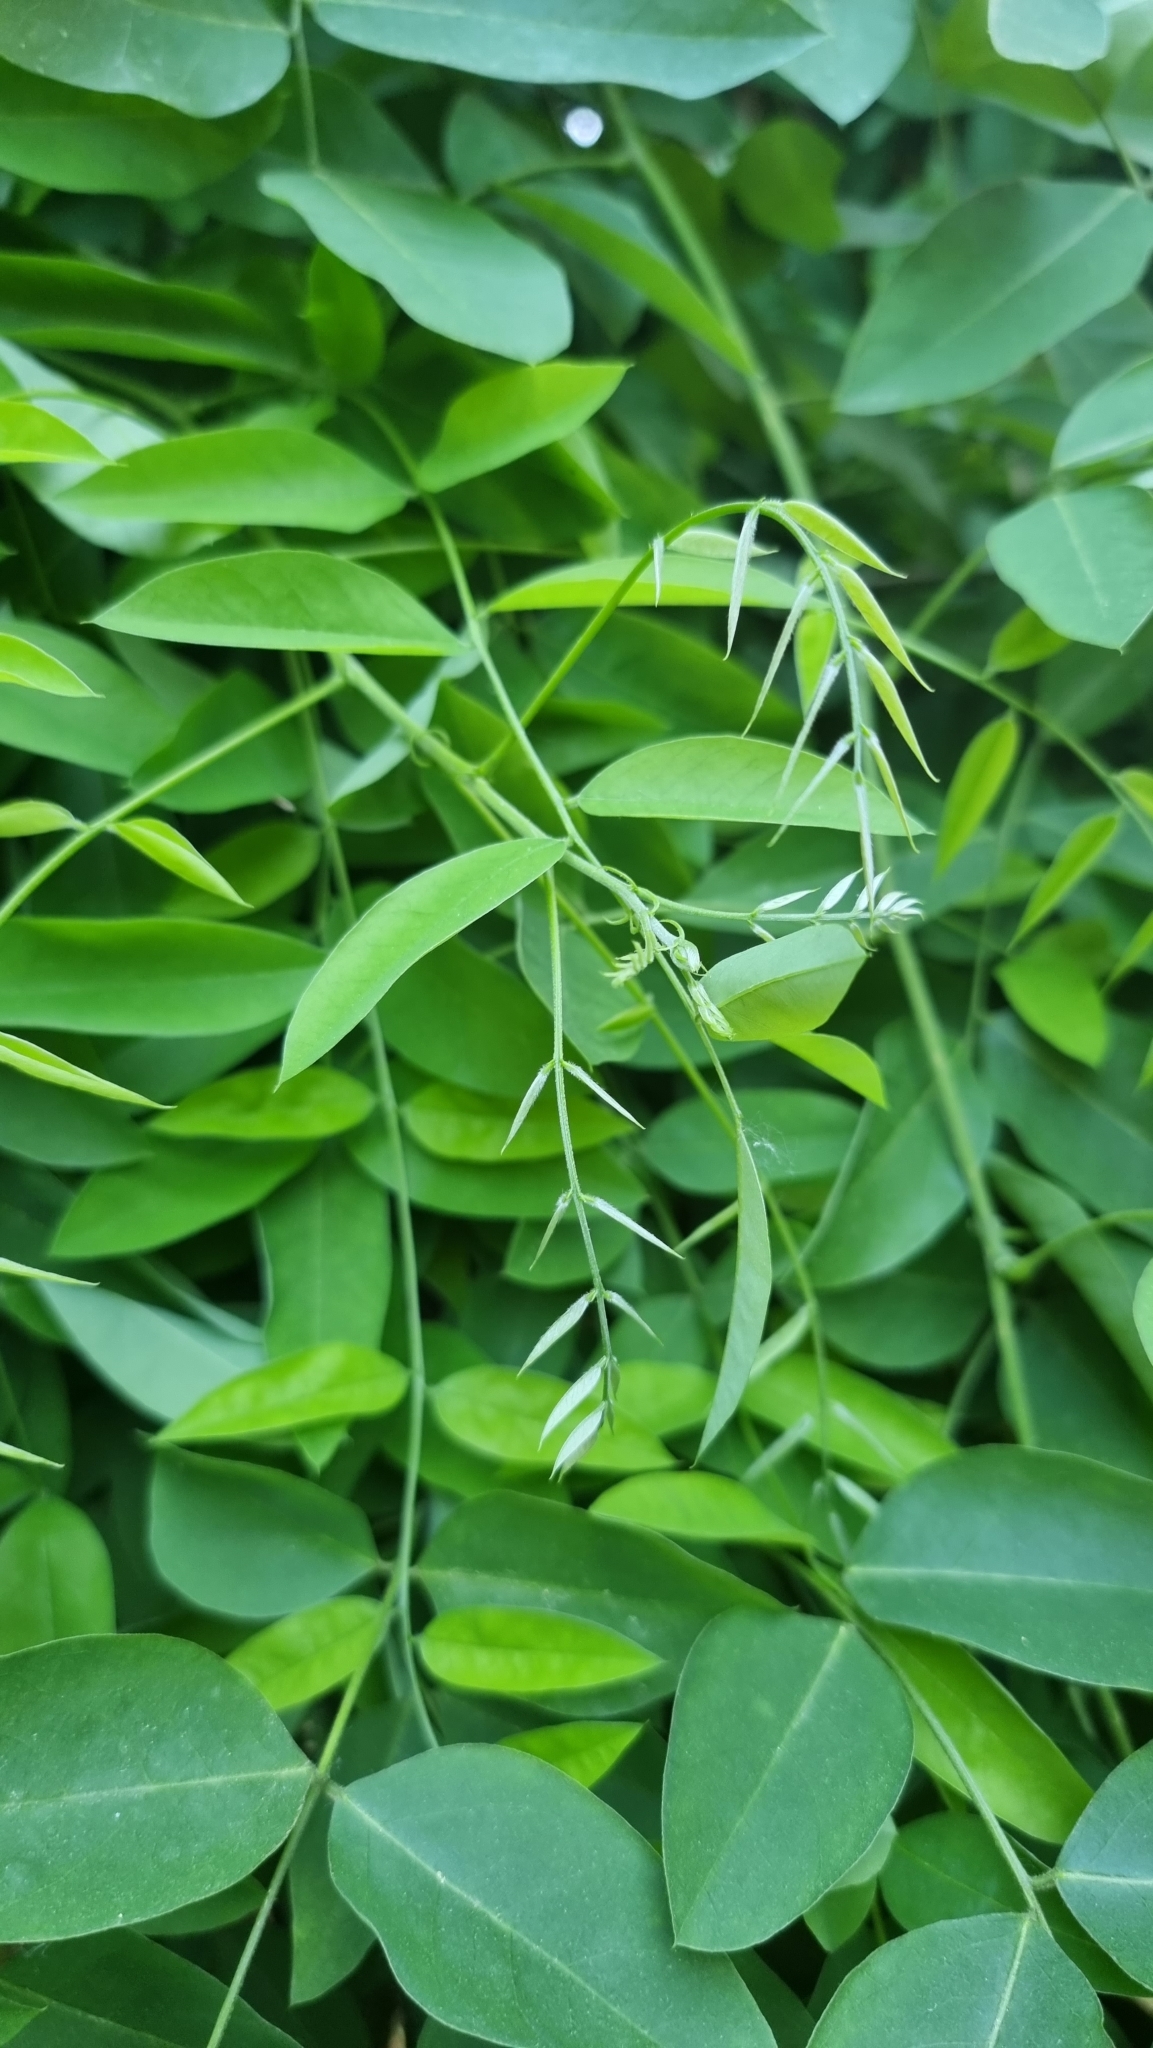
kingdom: Plantae
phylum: Tracheophyta
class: Magnoliopsida
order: Fabales
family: Fabaceae
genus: Robinia
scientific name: Robinia pseudoacacia
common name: Black locust
